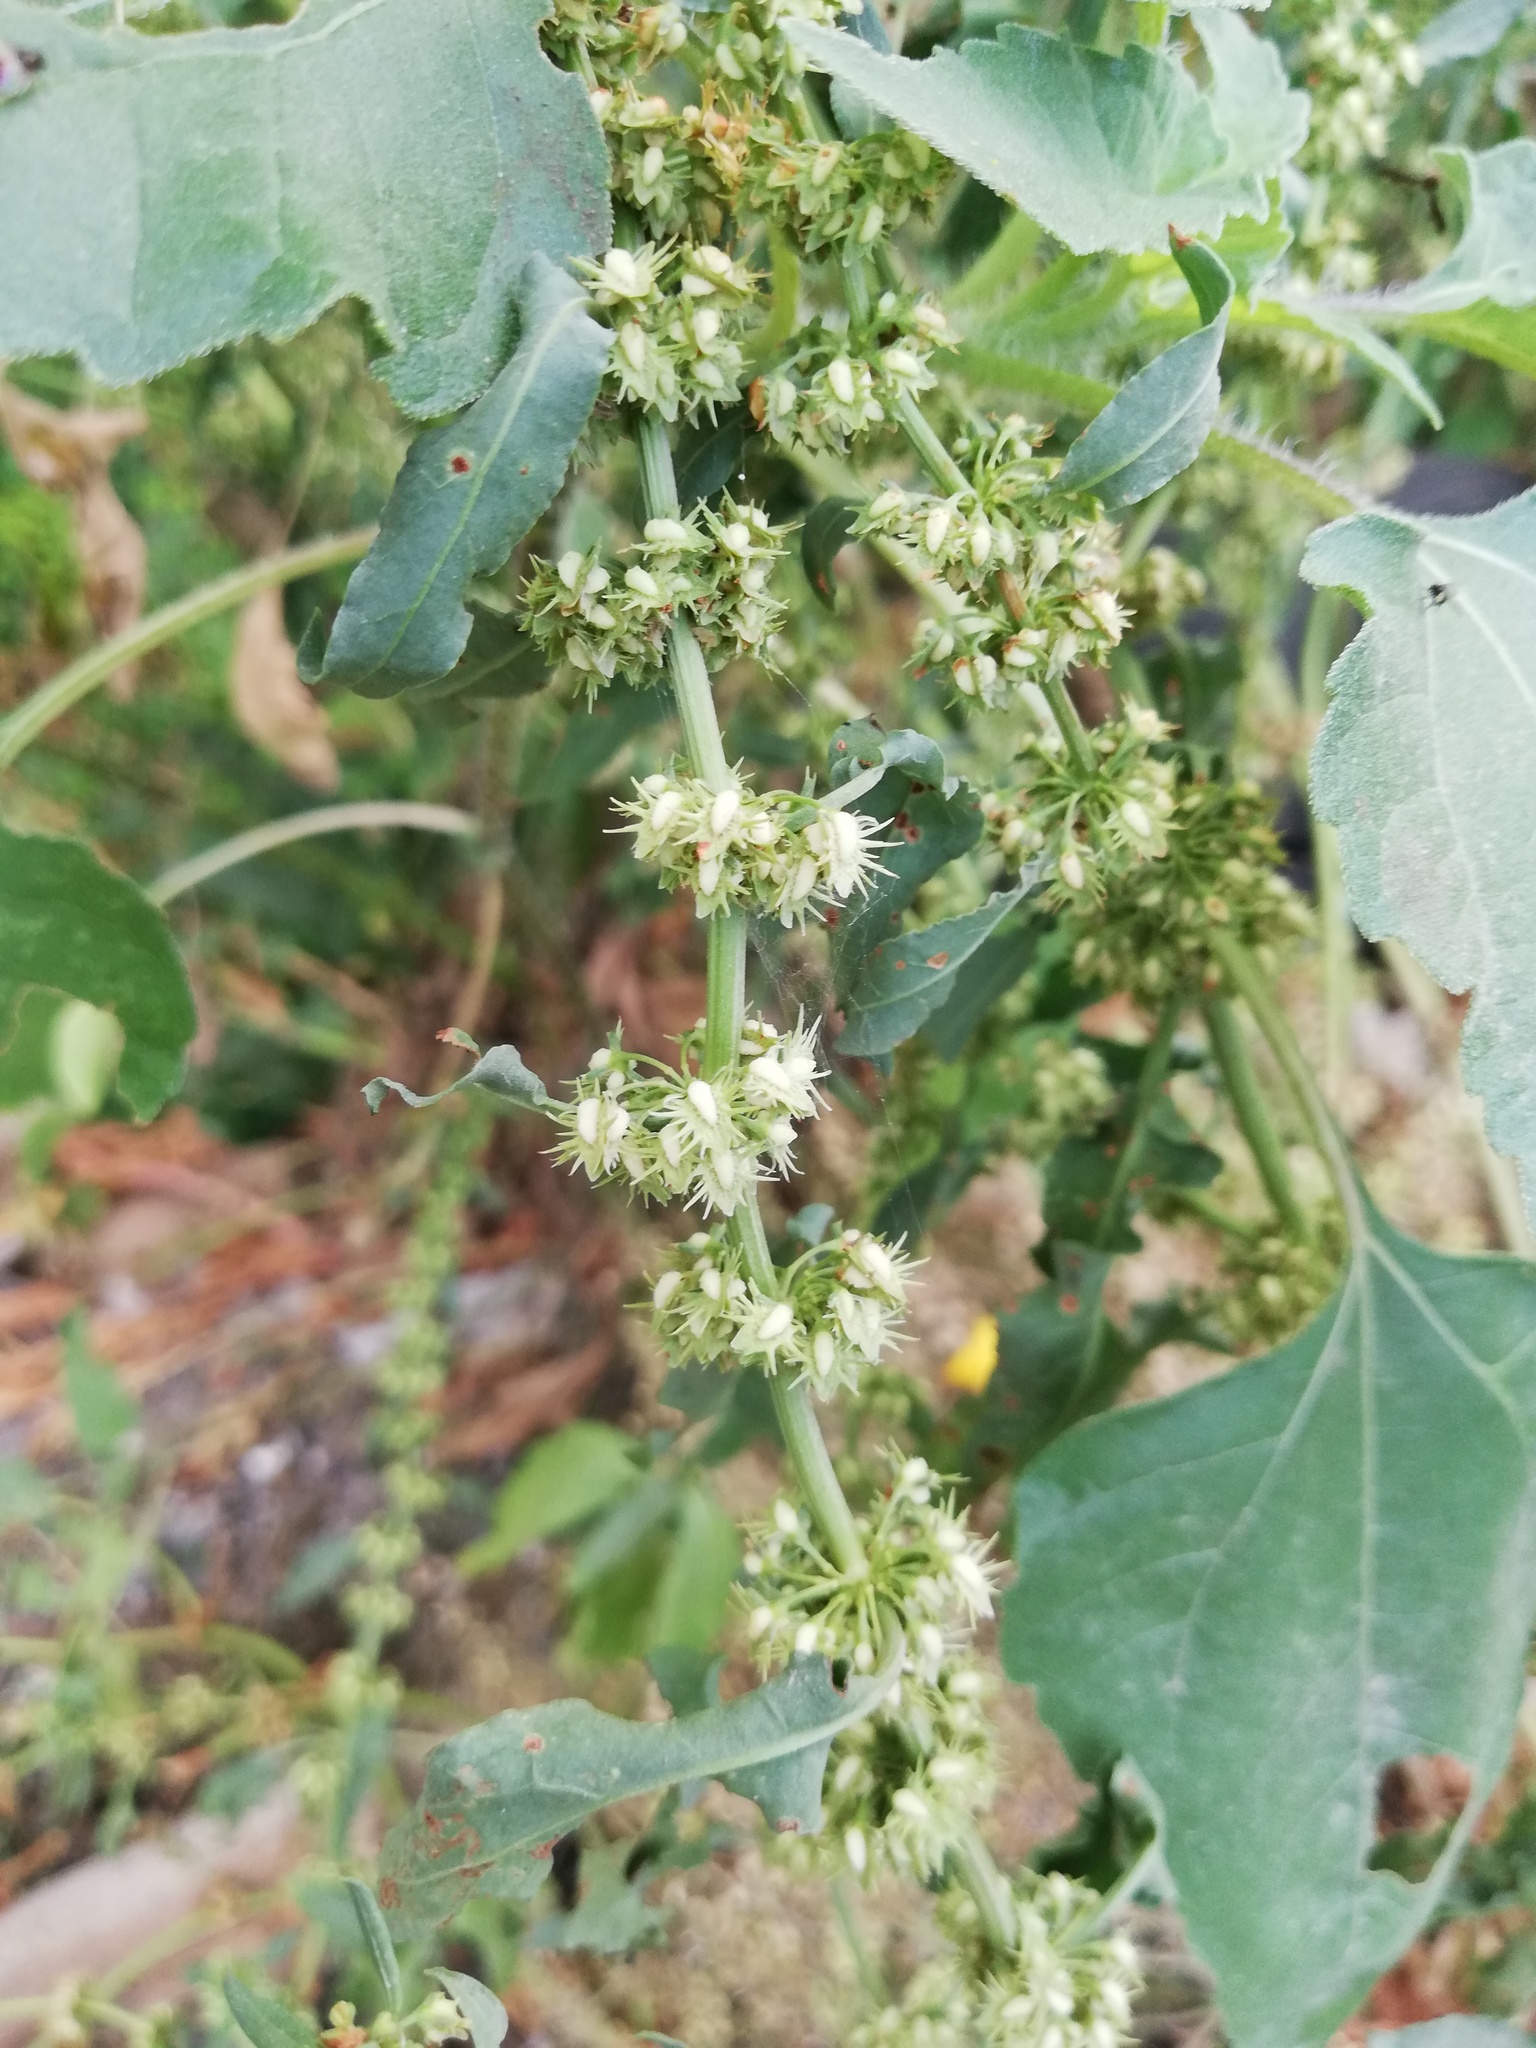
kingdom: Plantae
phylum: Tracheophyta
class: Magnoliopsida
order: Caryophyllales
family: Polygonaceae
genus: Rumex
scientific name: Rumex obtusifolius
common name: Bitter dock
